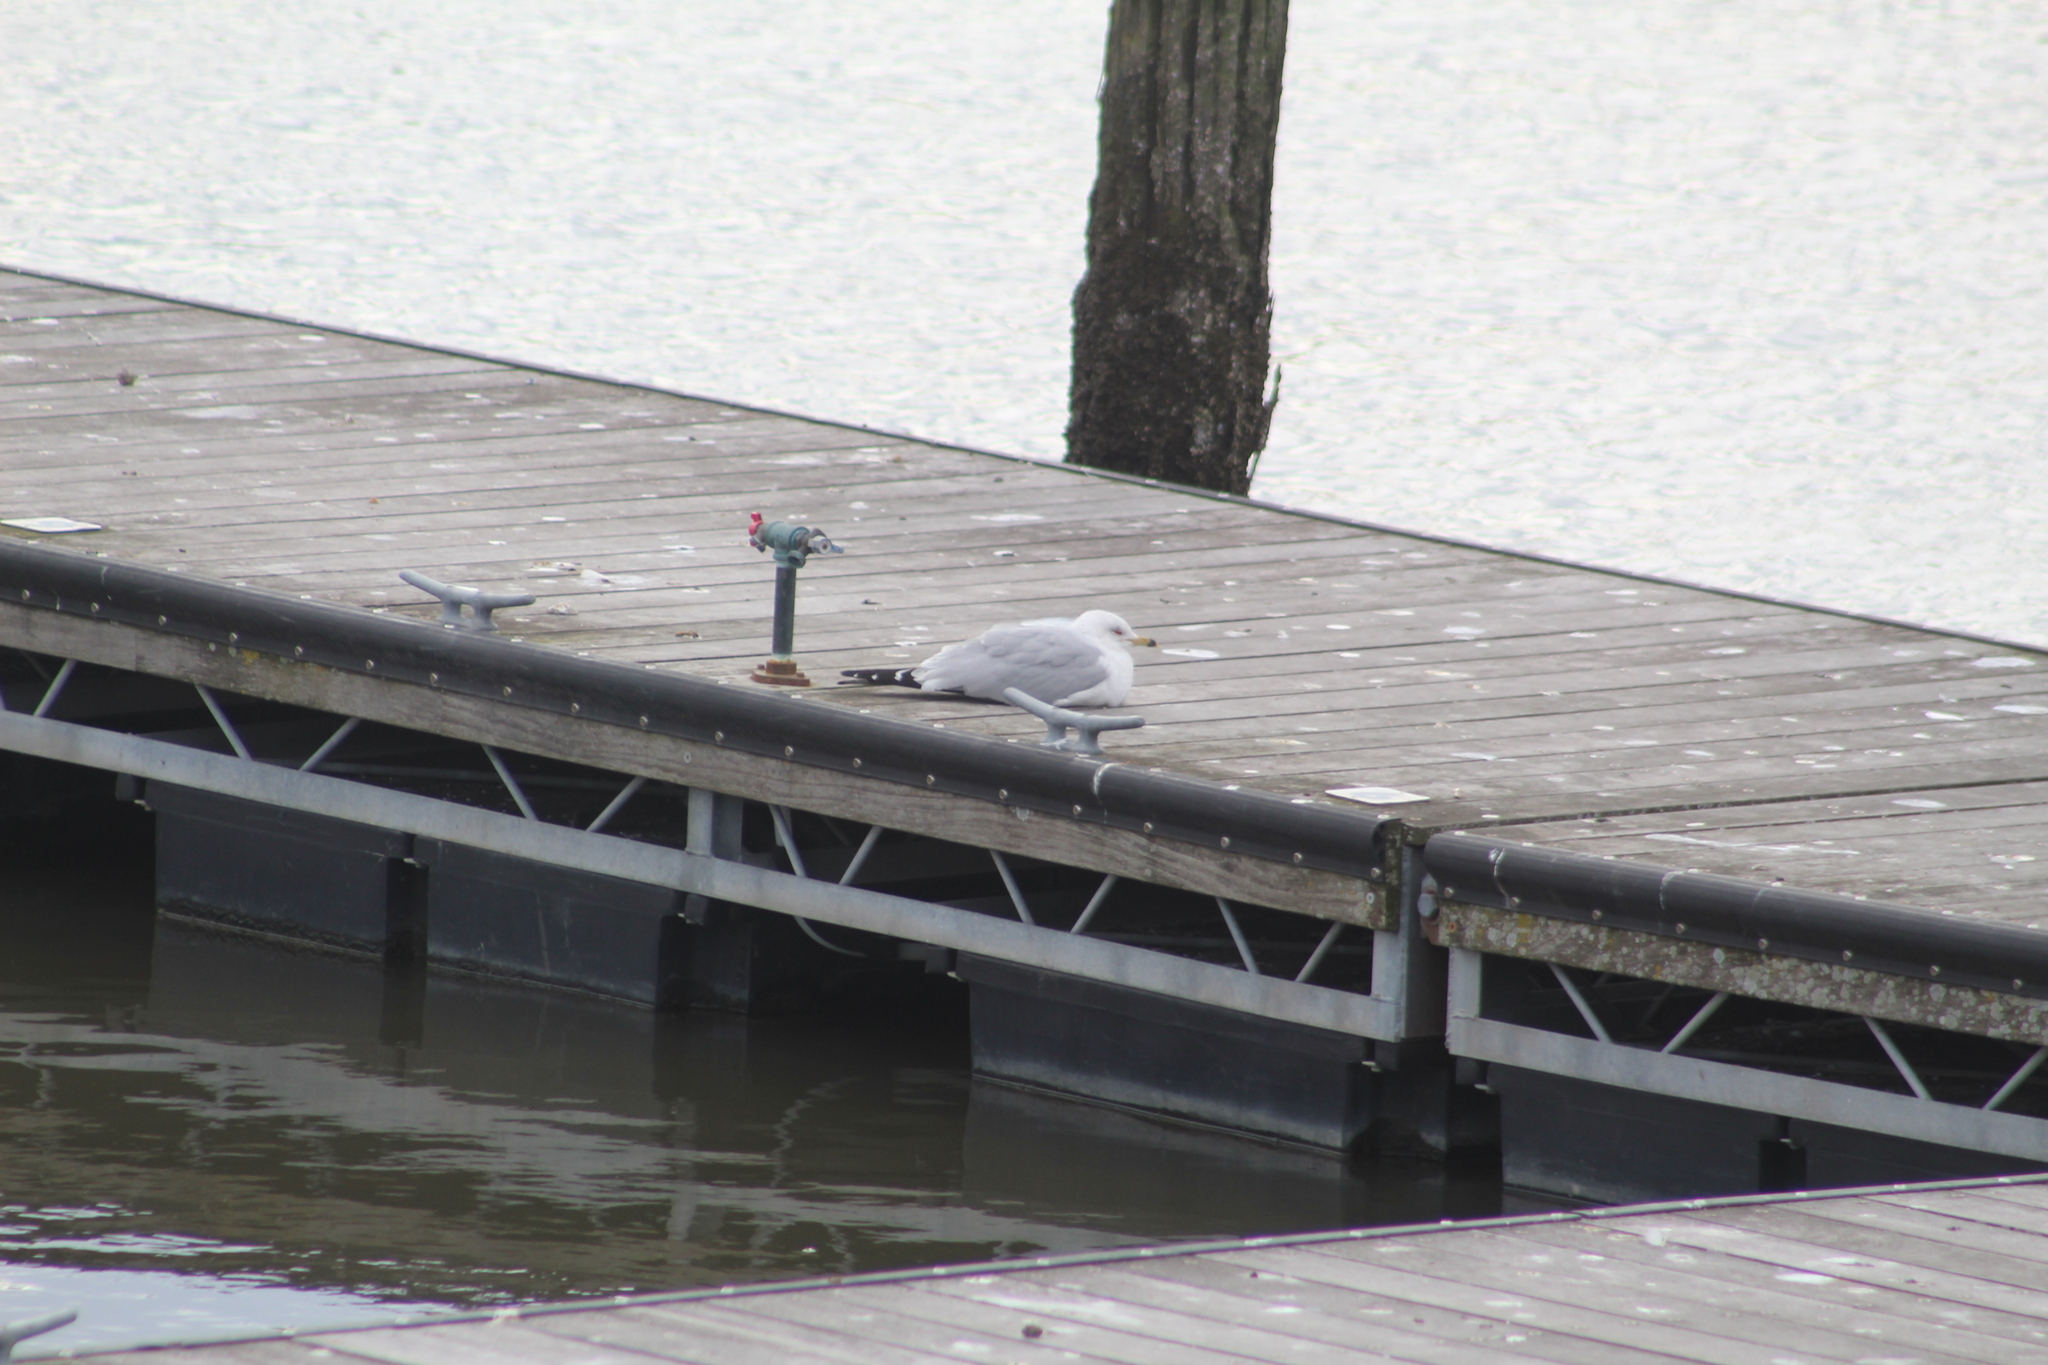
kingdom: Animalia
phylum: Chordata
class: Aves
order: Charadriiformes
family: Laridae
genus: Larus
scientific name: Larus delawarensis
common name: Ring-billed gull
